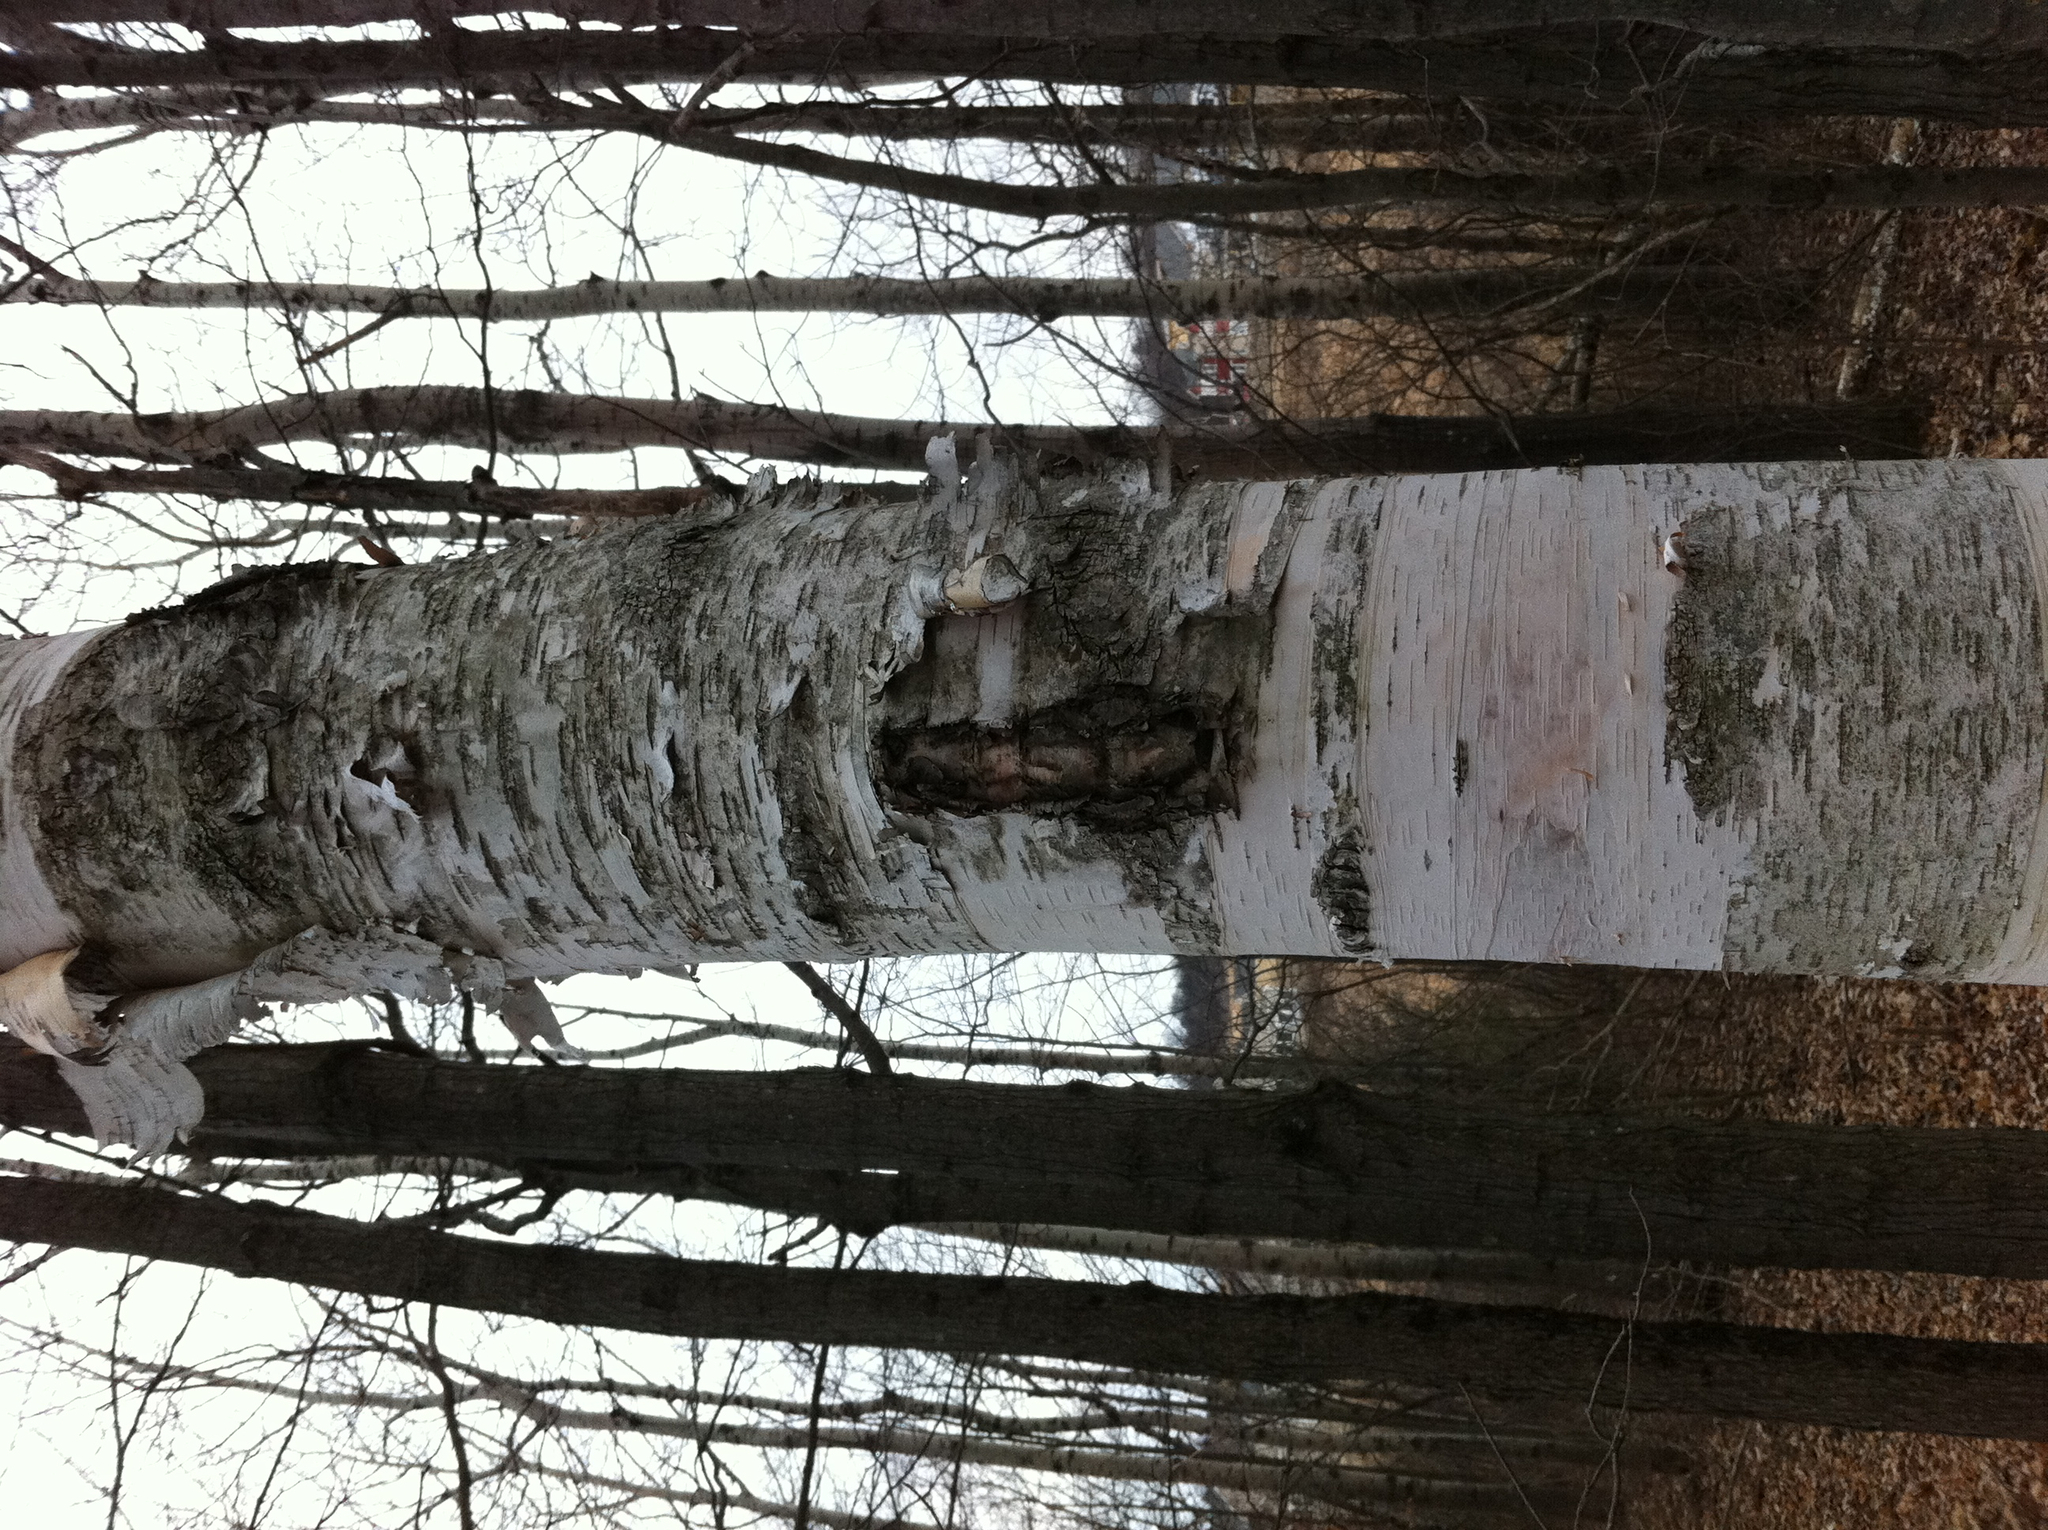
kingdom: Plantae
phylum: Tracheophyta
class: Magnoliopsida
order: Fagales
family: Betulaceae
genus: Betula
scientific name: Betula papyrifera
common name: Paper birch
